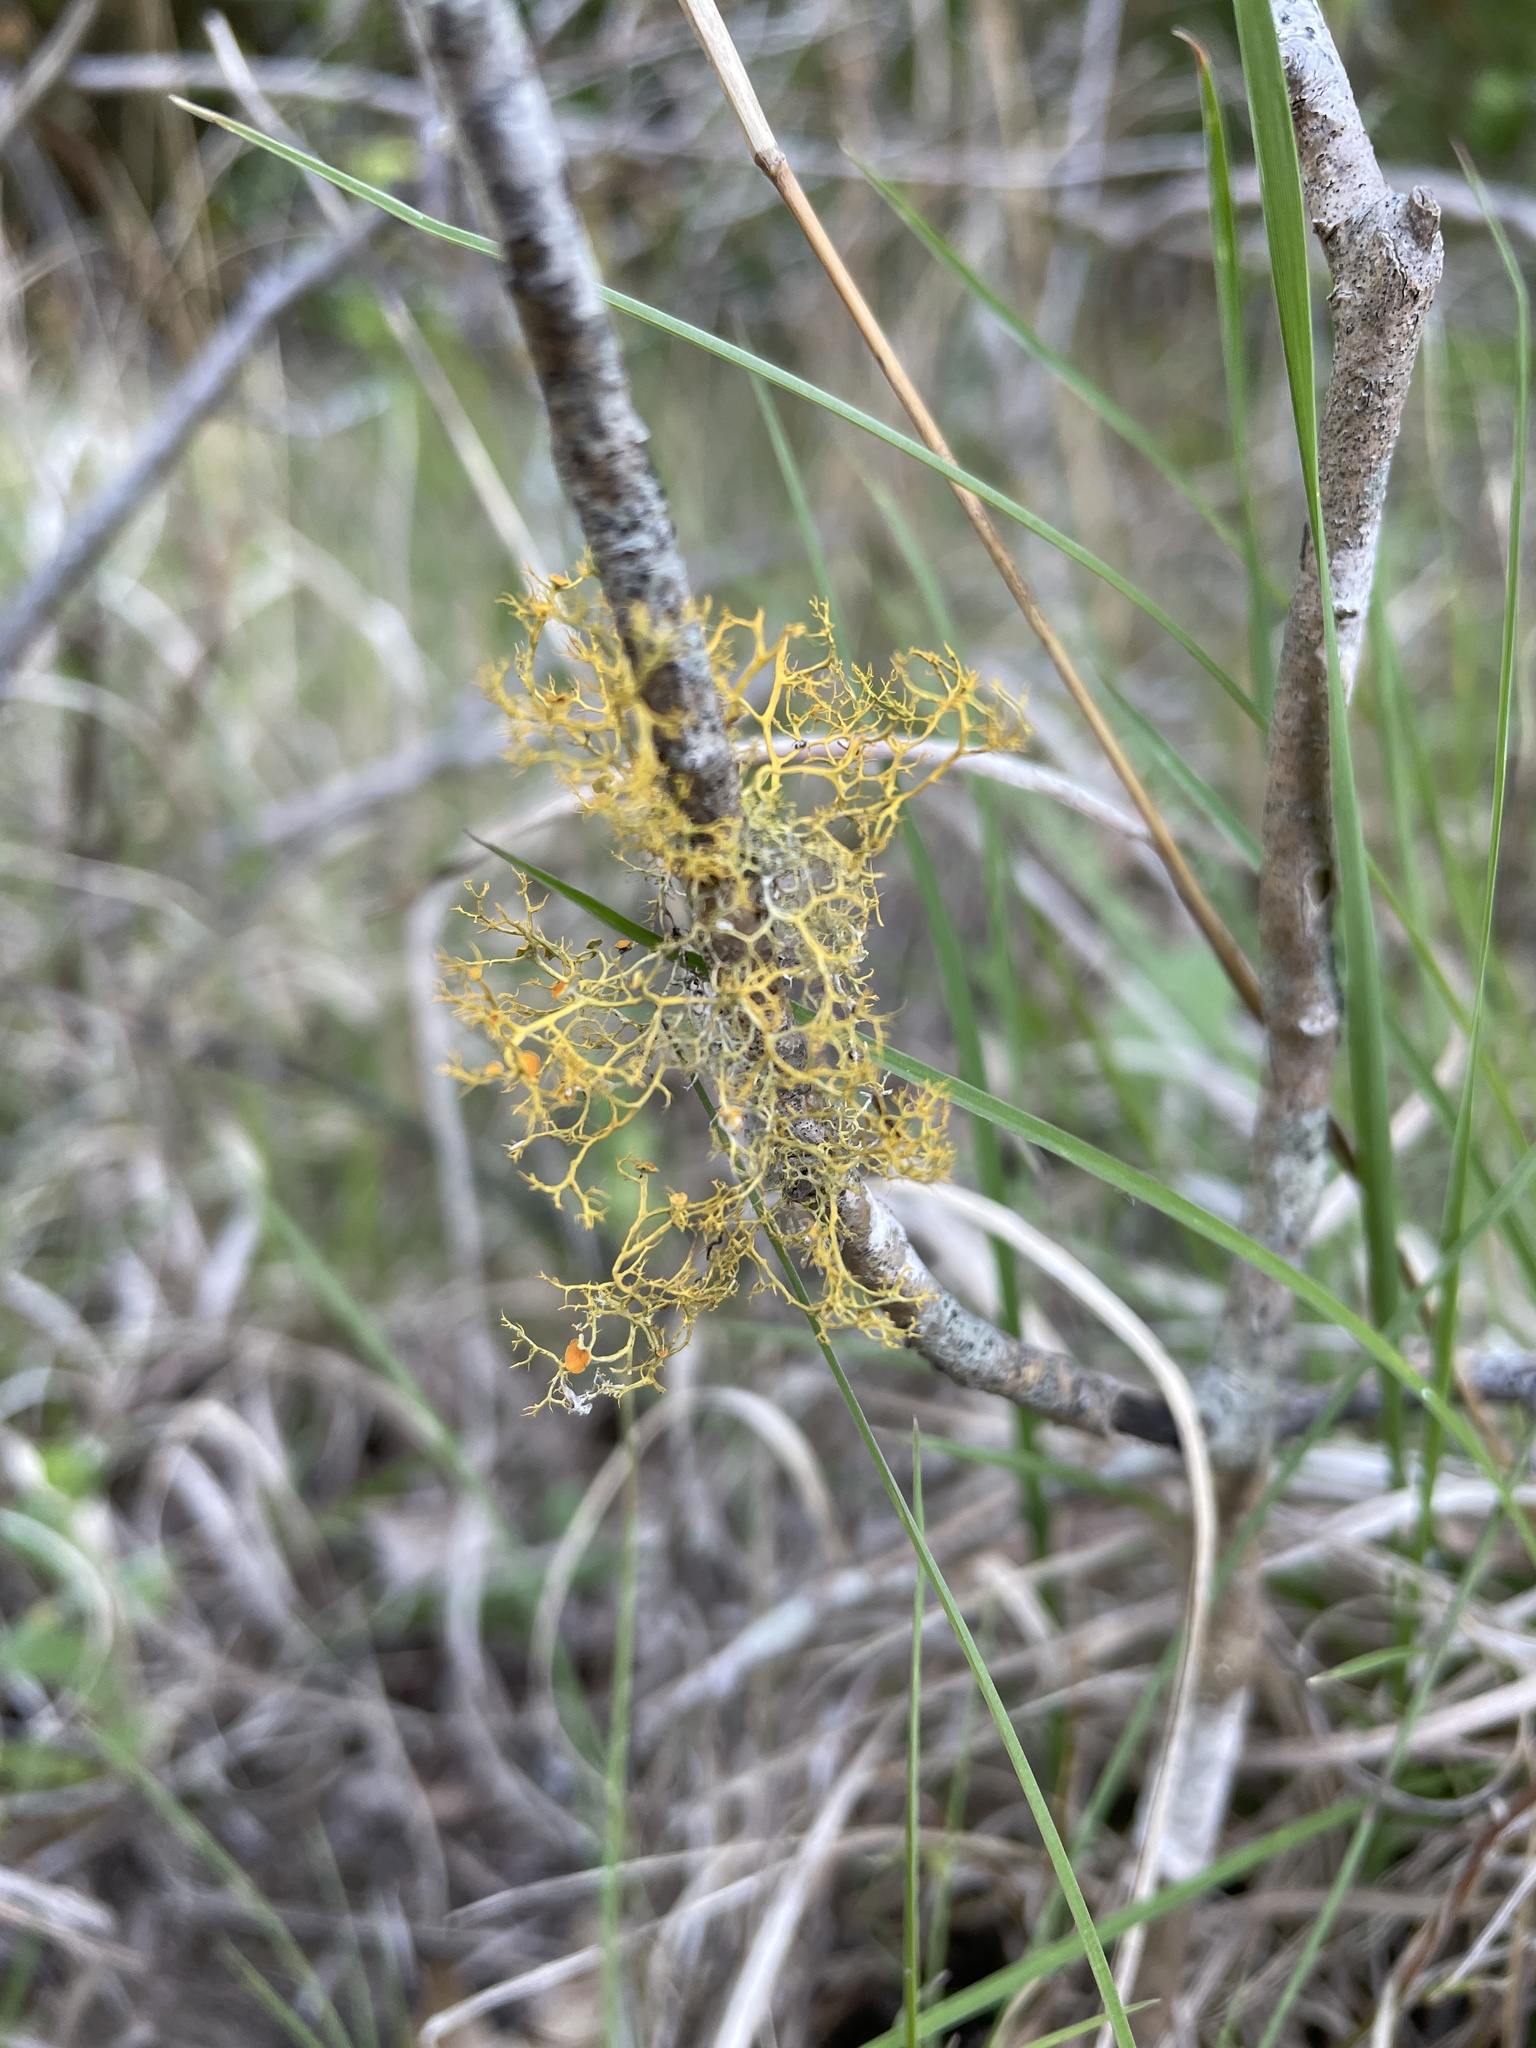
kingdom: Fungi
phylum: Ascomycota
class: Lecanoromycetes
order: Teloschistales
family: Teloschistaceae
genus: Teloschistes
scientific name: Teloschistes exilis
